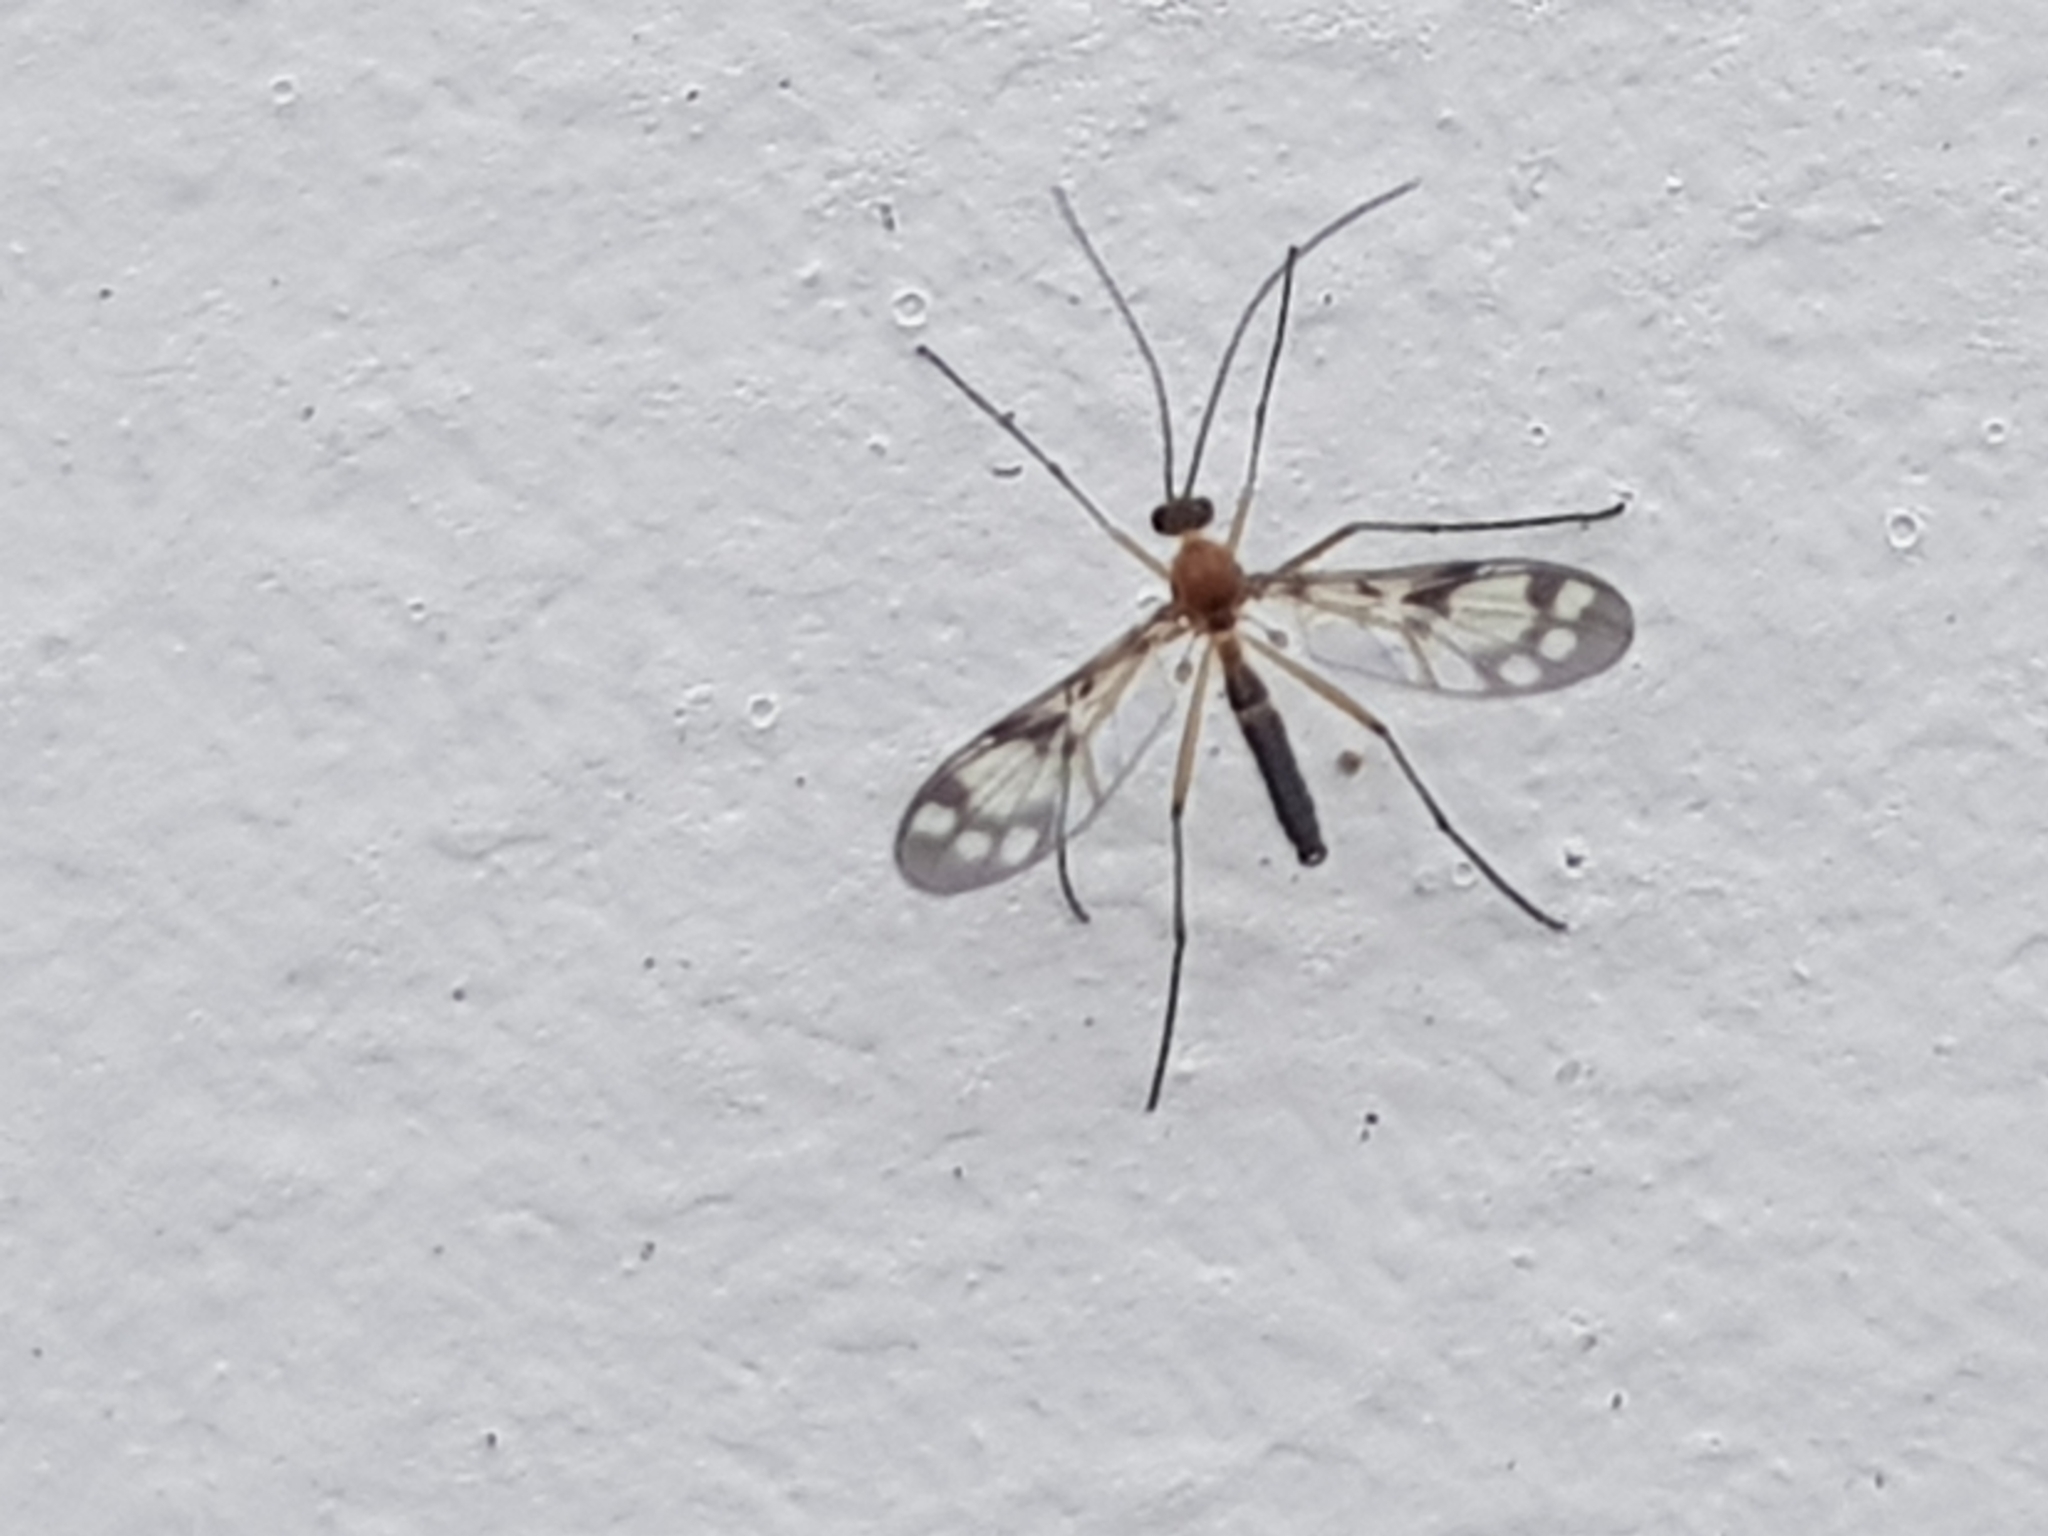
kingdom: Animalia
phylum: Arthropoda
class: Insecta
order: Diptera
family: Keroplatidae
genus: Chiasmoneura
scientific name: Chiasmoneura fenestrata
